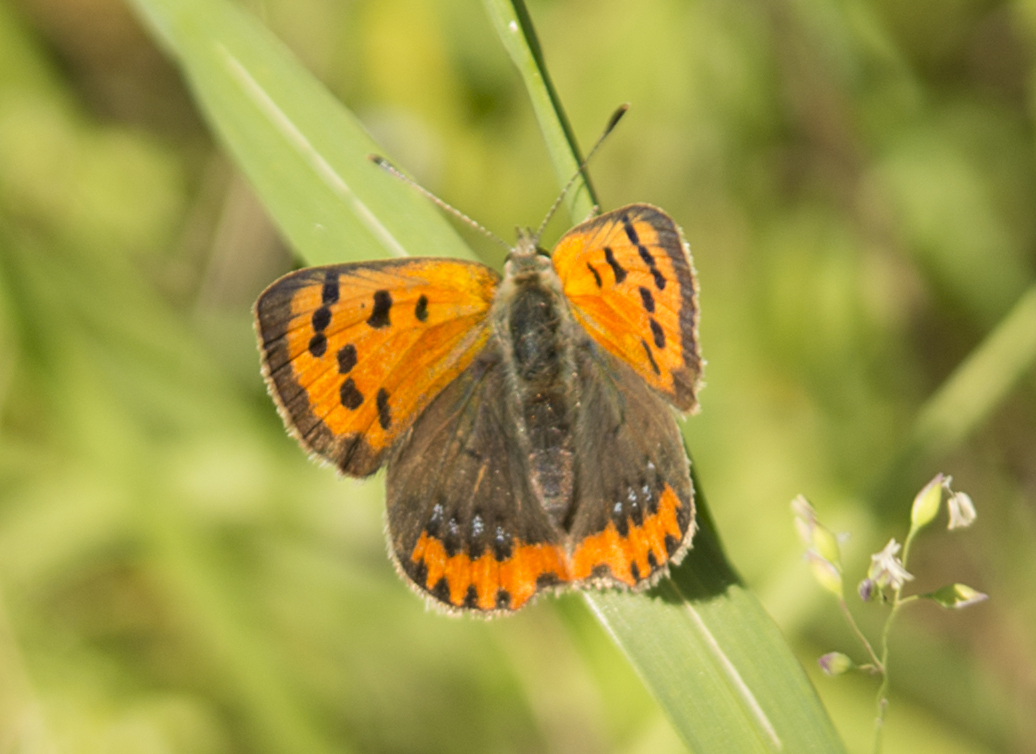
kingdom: Animalia
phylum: Arthropoda
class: Insecta
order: Lepidoptera
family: Lycaenidae
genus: Lycaena
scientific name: Lycaena phlaeas
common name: Small copper
